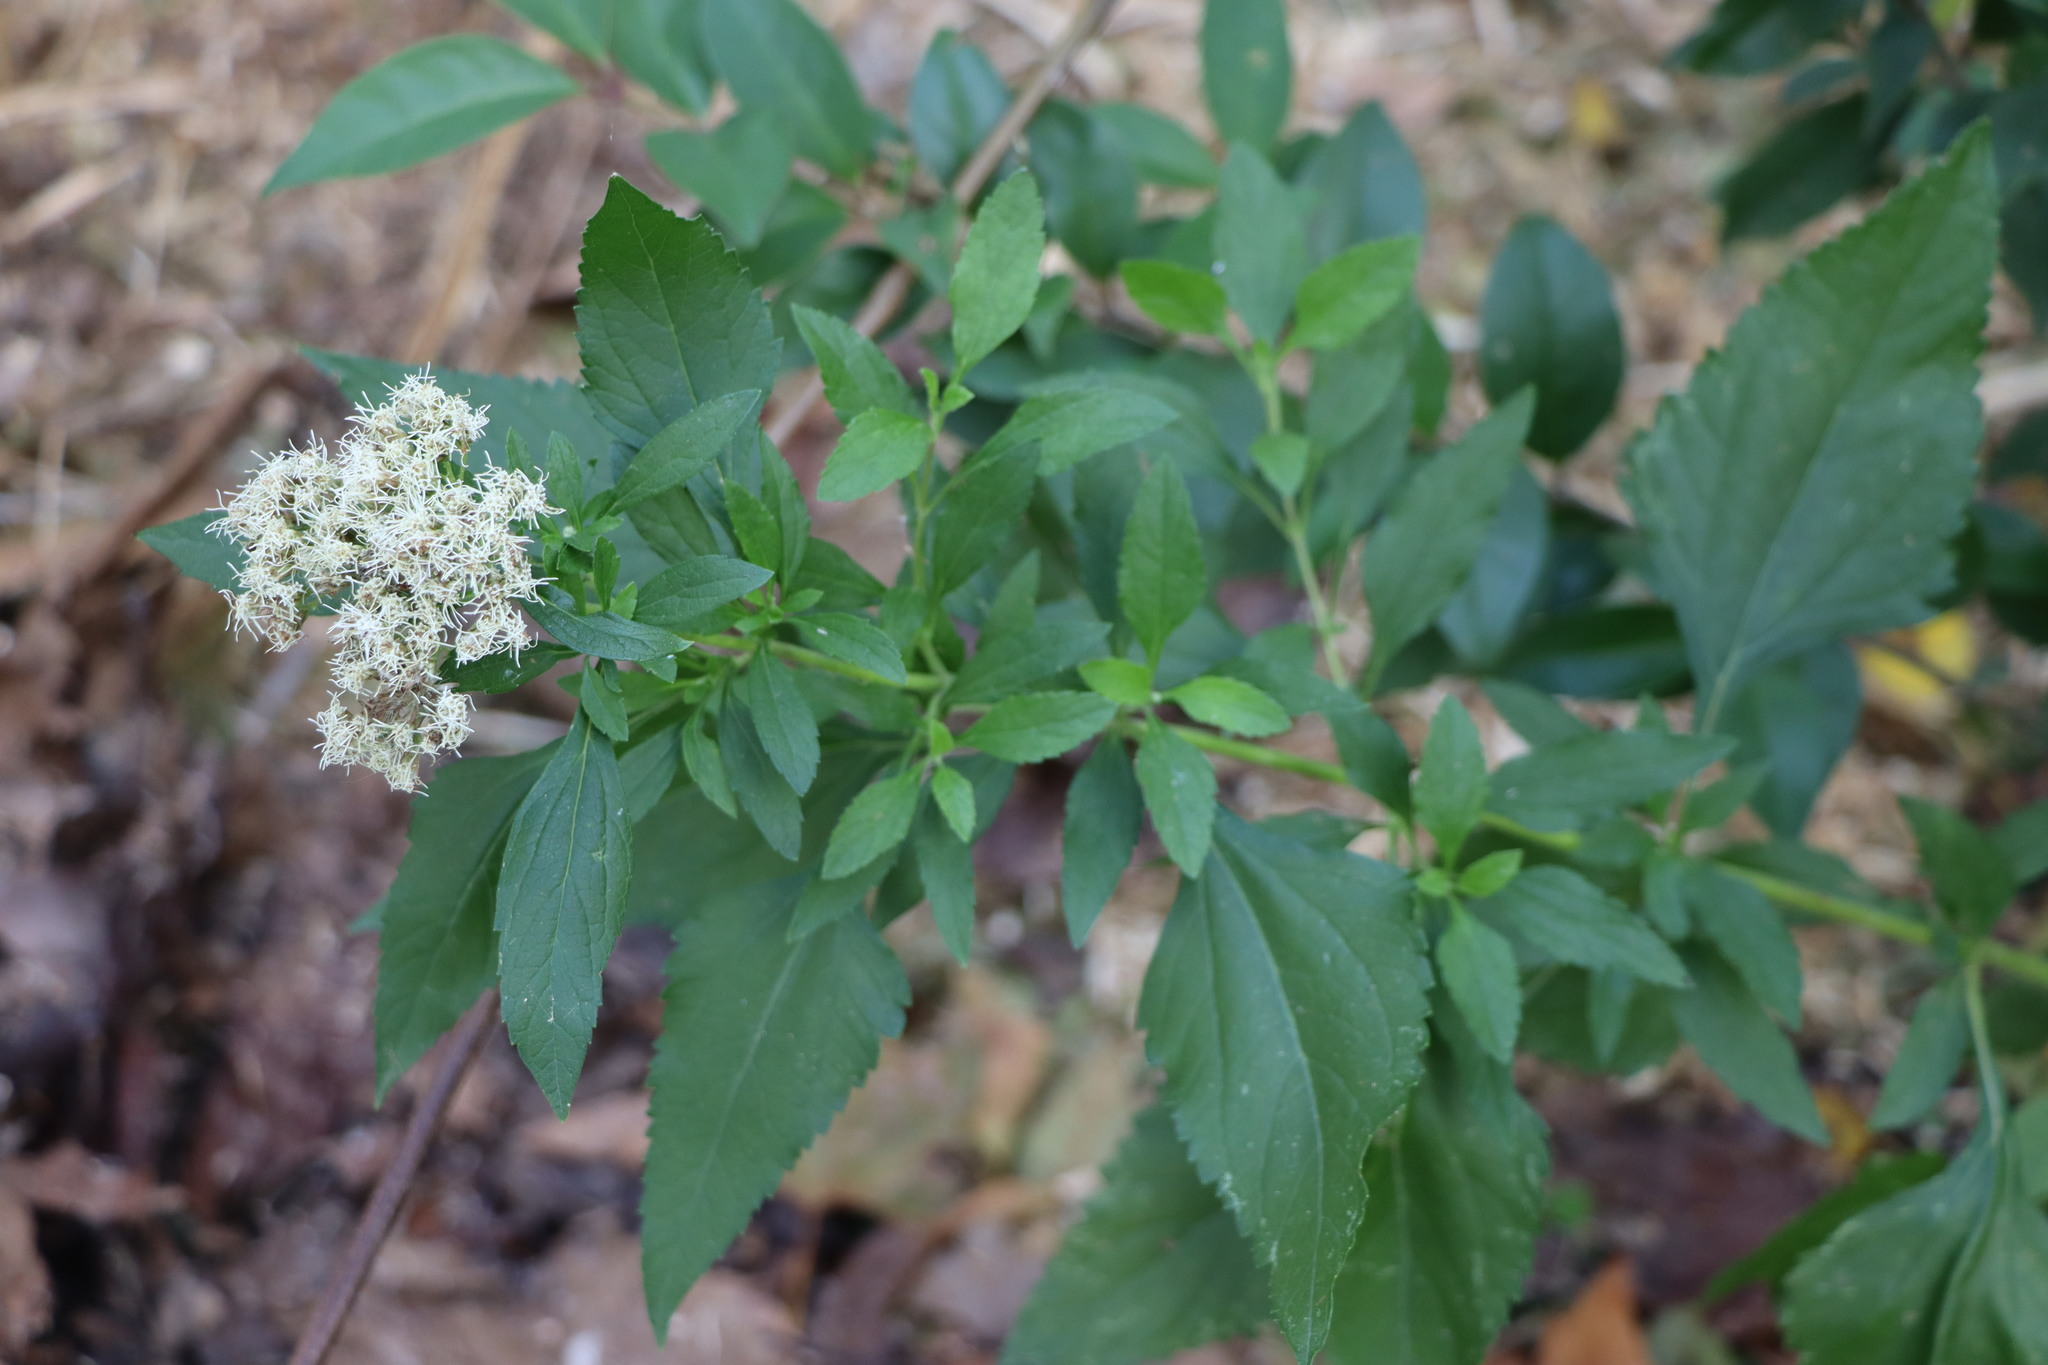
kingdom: Plantae
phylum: Tracheophyta
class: Magnoliopsida
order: Asterales
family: Asteraceae
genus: Austroeupatorium
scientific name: Austroeupatorium inulifolium
